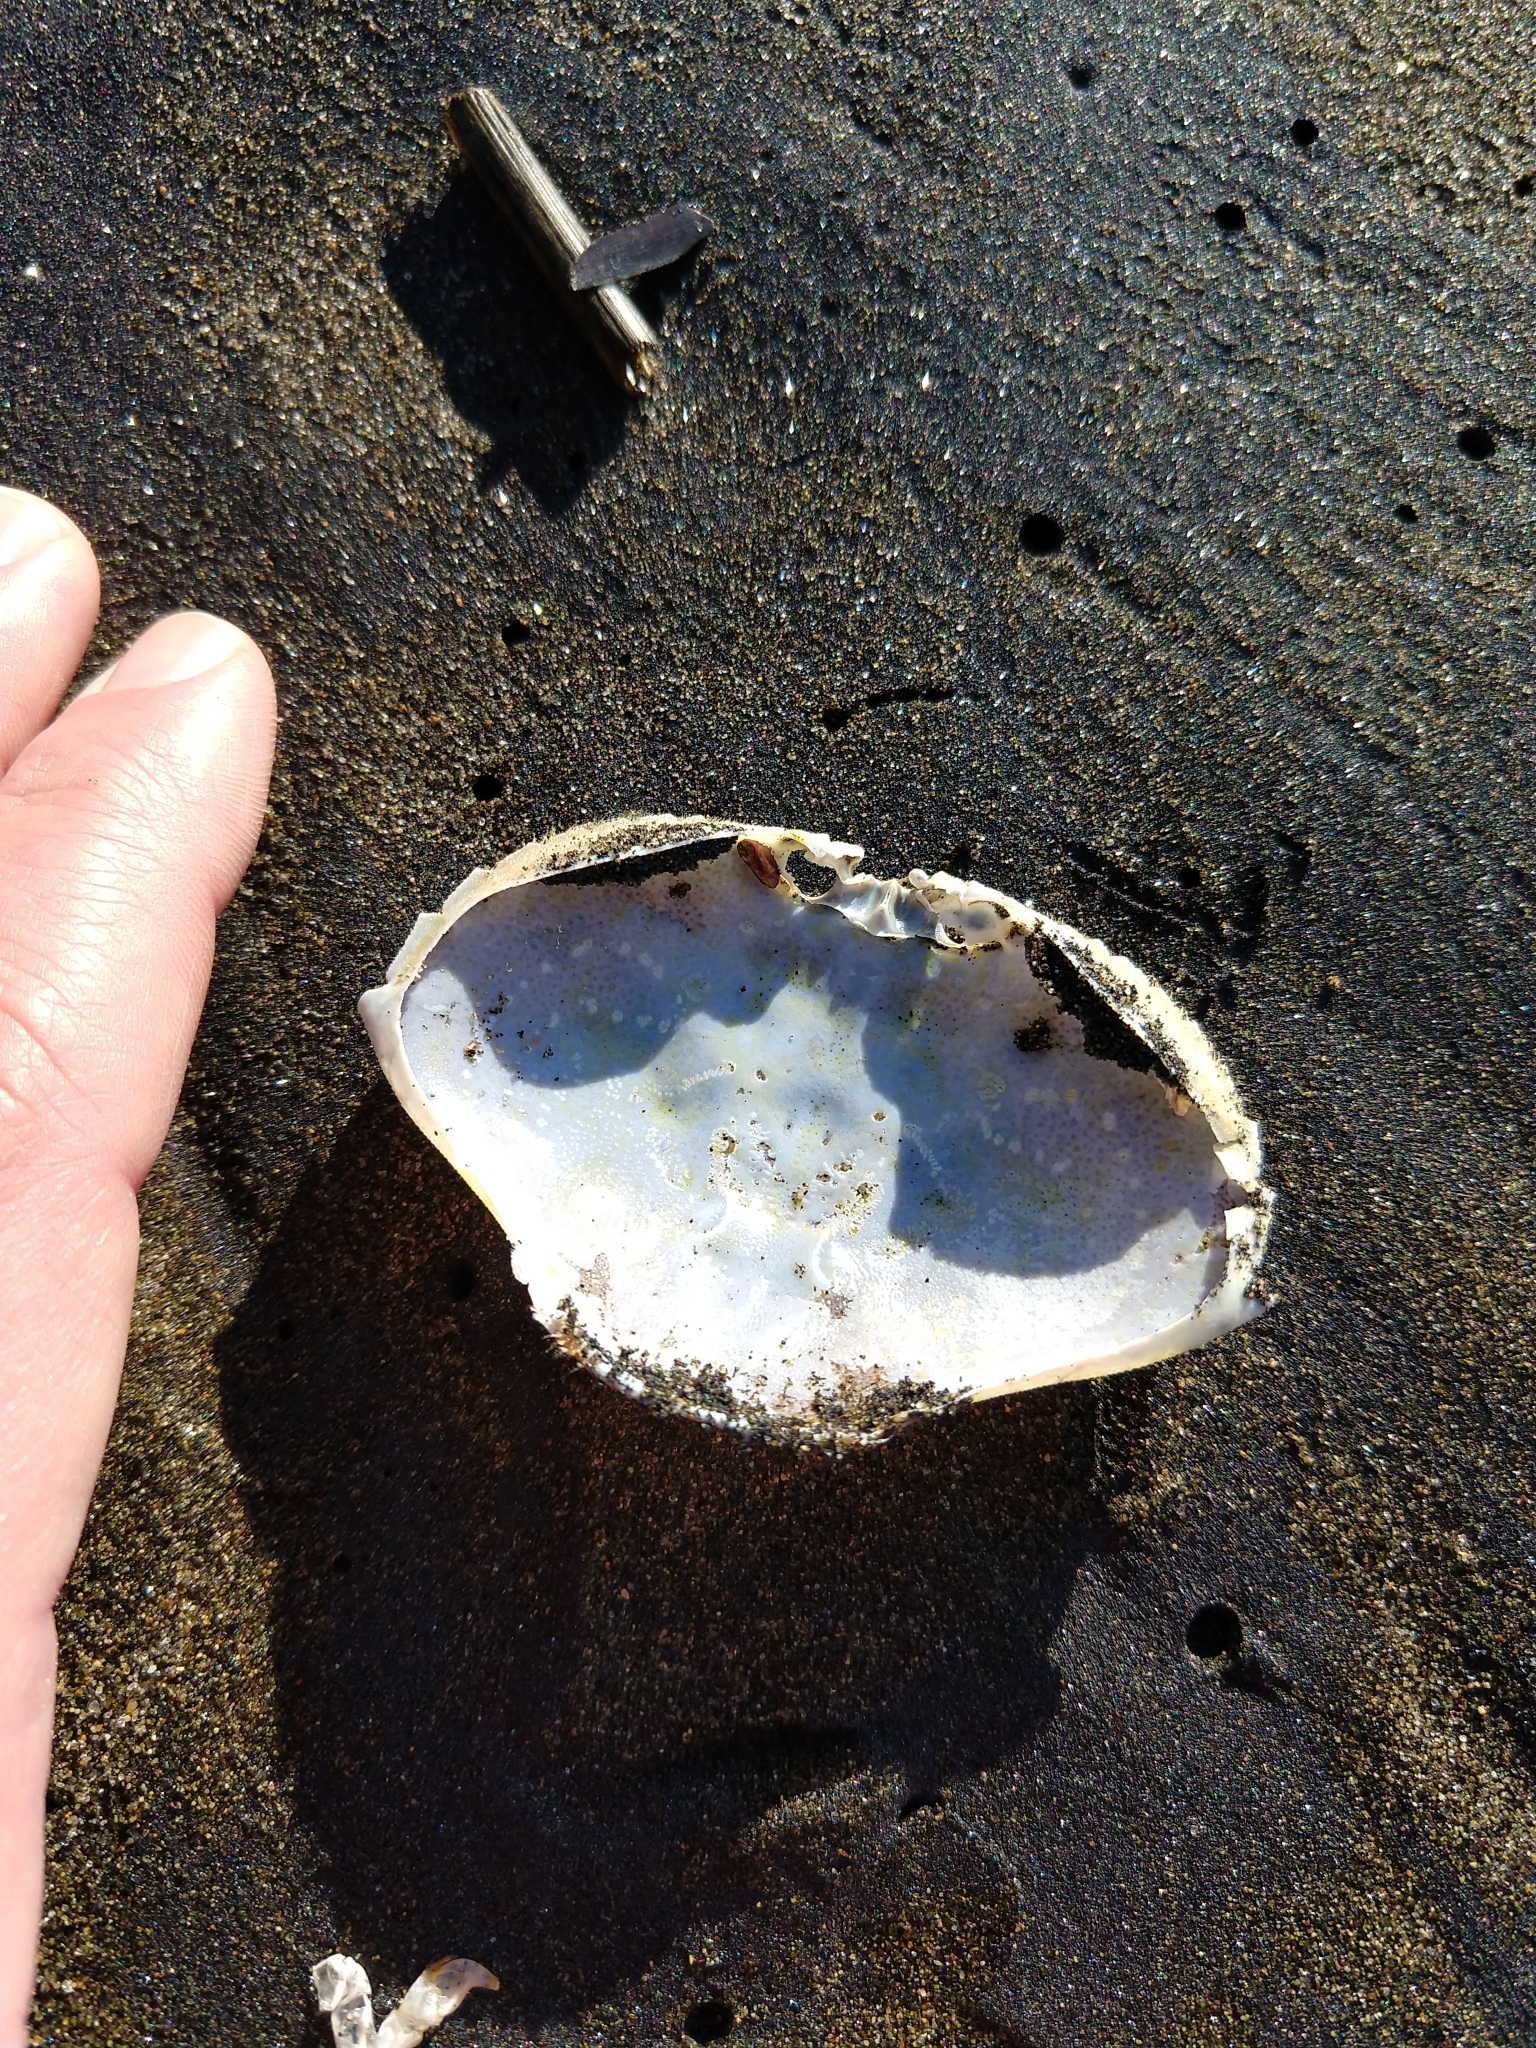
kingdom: Animalia
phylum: Arthropoda
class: Malacostraca
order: Decapoda
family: Cancridae
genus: Metacarcinus
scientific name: Metacarcinus magister
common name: Californian crab
